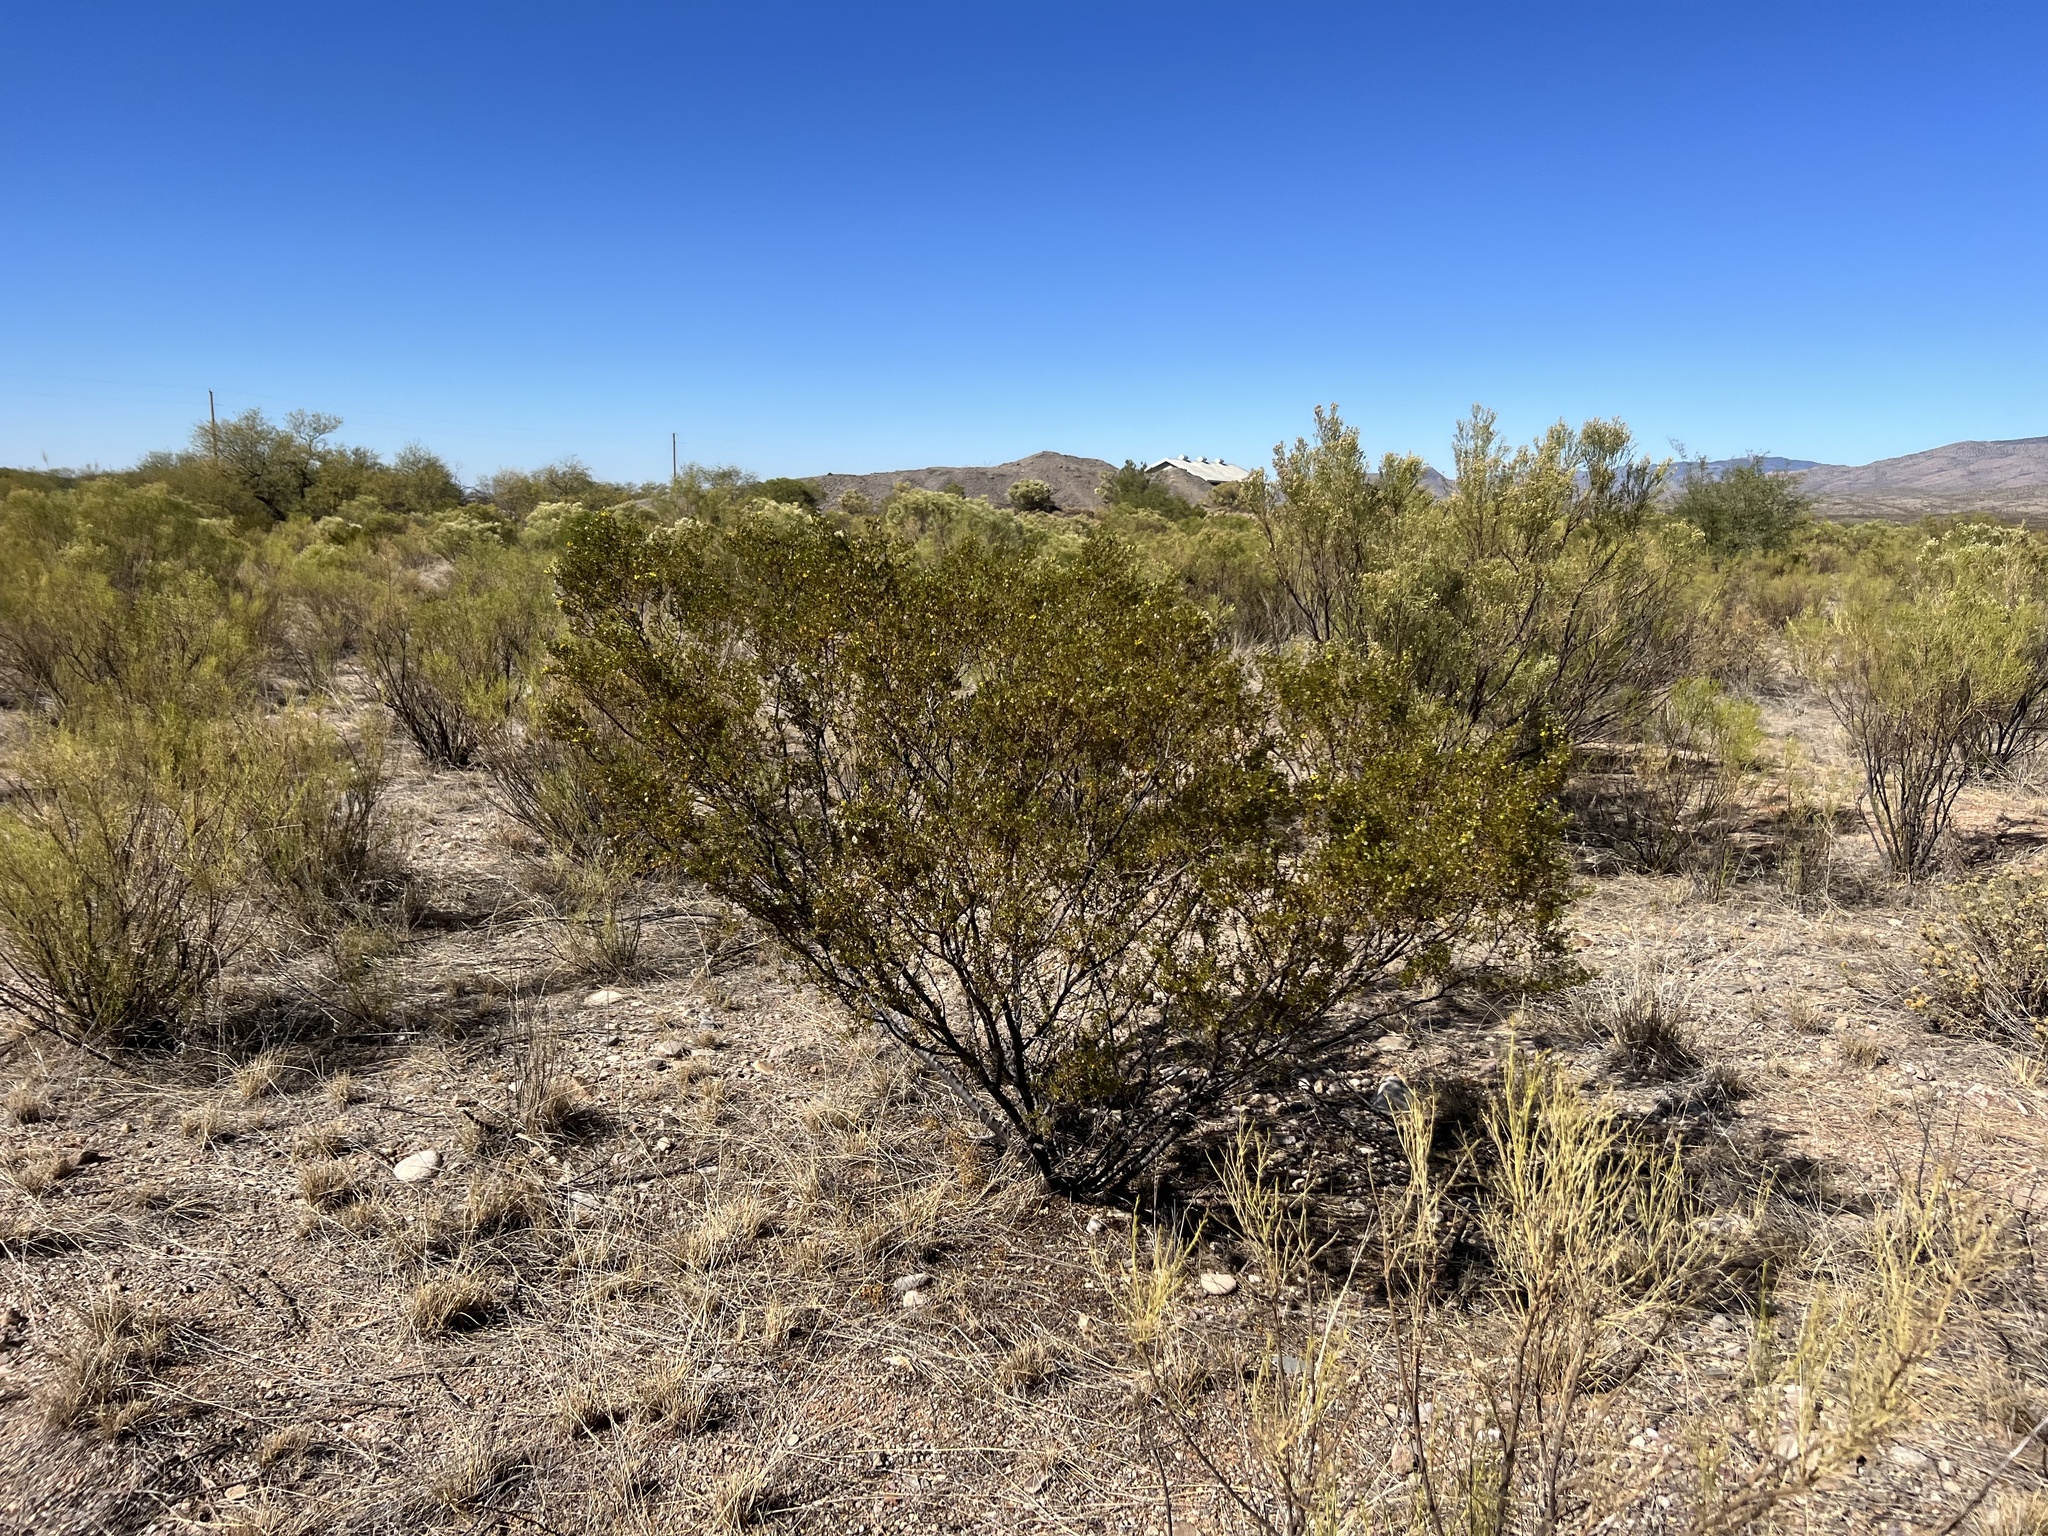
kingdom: Plantae
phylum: Tracheophyta
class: Magnoliopsida
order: Zygophyllales
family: Zygophyllaceae
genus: Larrea
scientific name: Larrea tridentata
